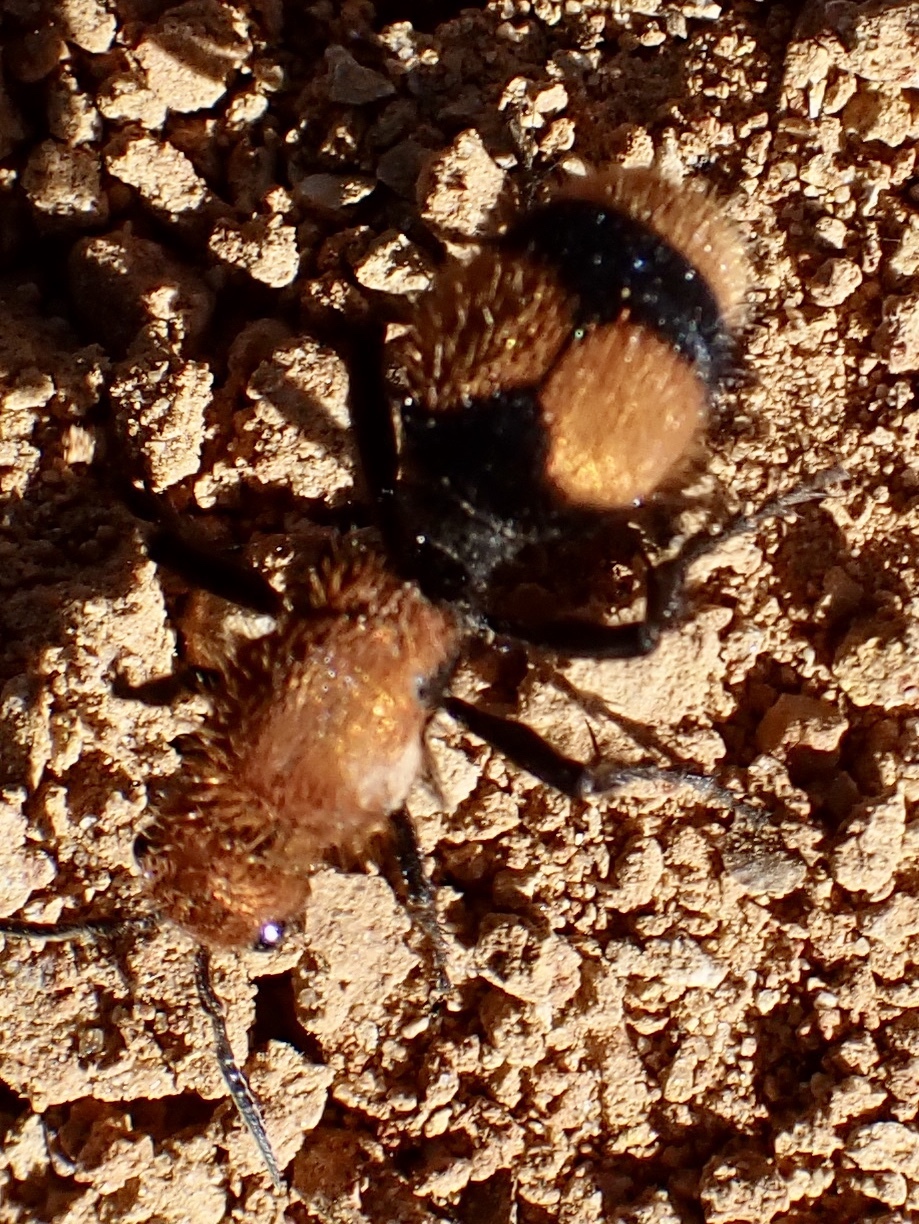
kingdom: Animalia
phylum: Arthropoda
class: Insecta
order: Hymenoptera
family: Mutillidae
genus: Dasymutilla
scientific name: Dasymutilla occidentalis
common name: Common eastern velvet ant
